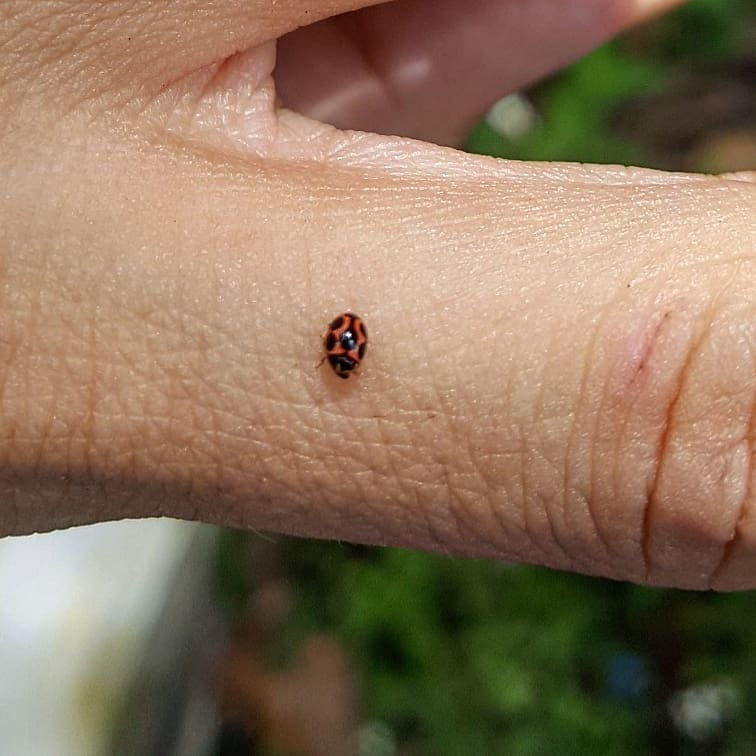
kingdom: Animalia
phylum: Arthropoda
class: Insecta
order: Coleoptera
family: Coccinellidae
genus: Novius
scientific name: Novius cardinalis
